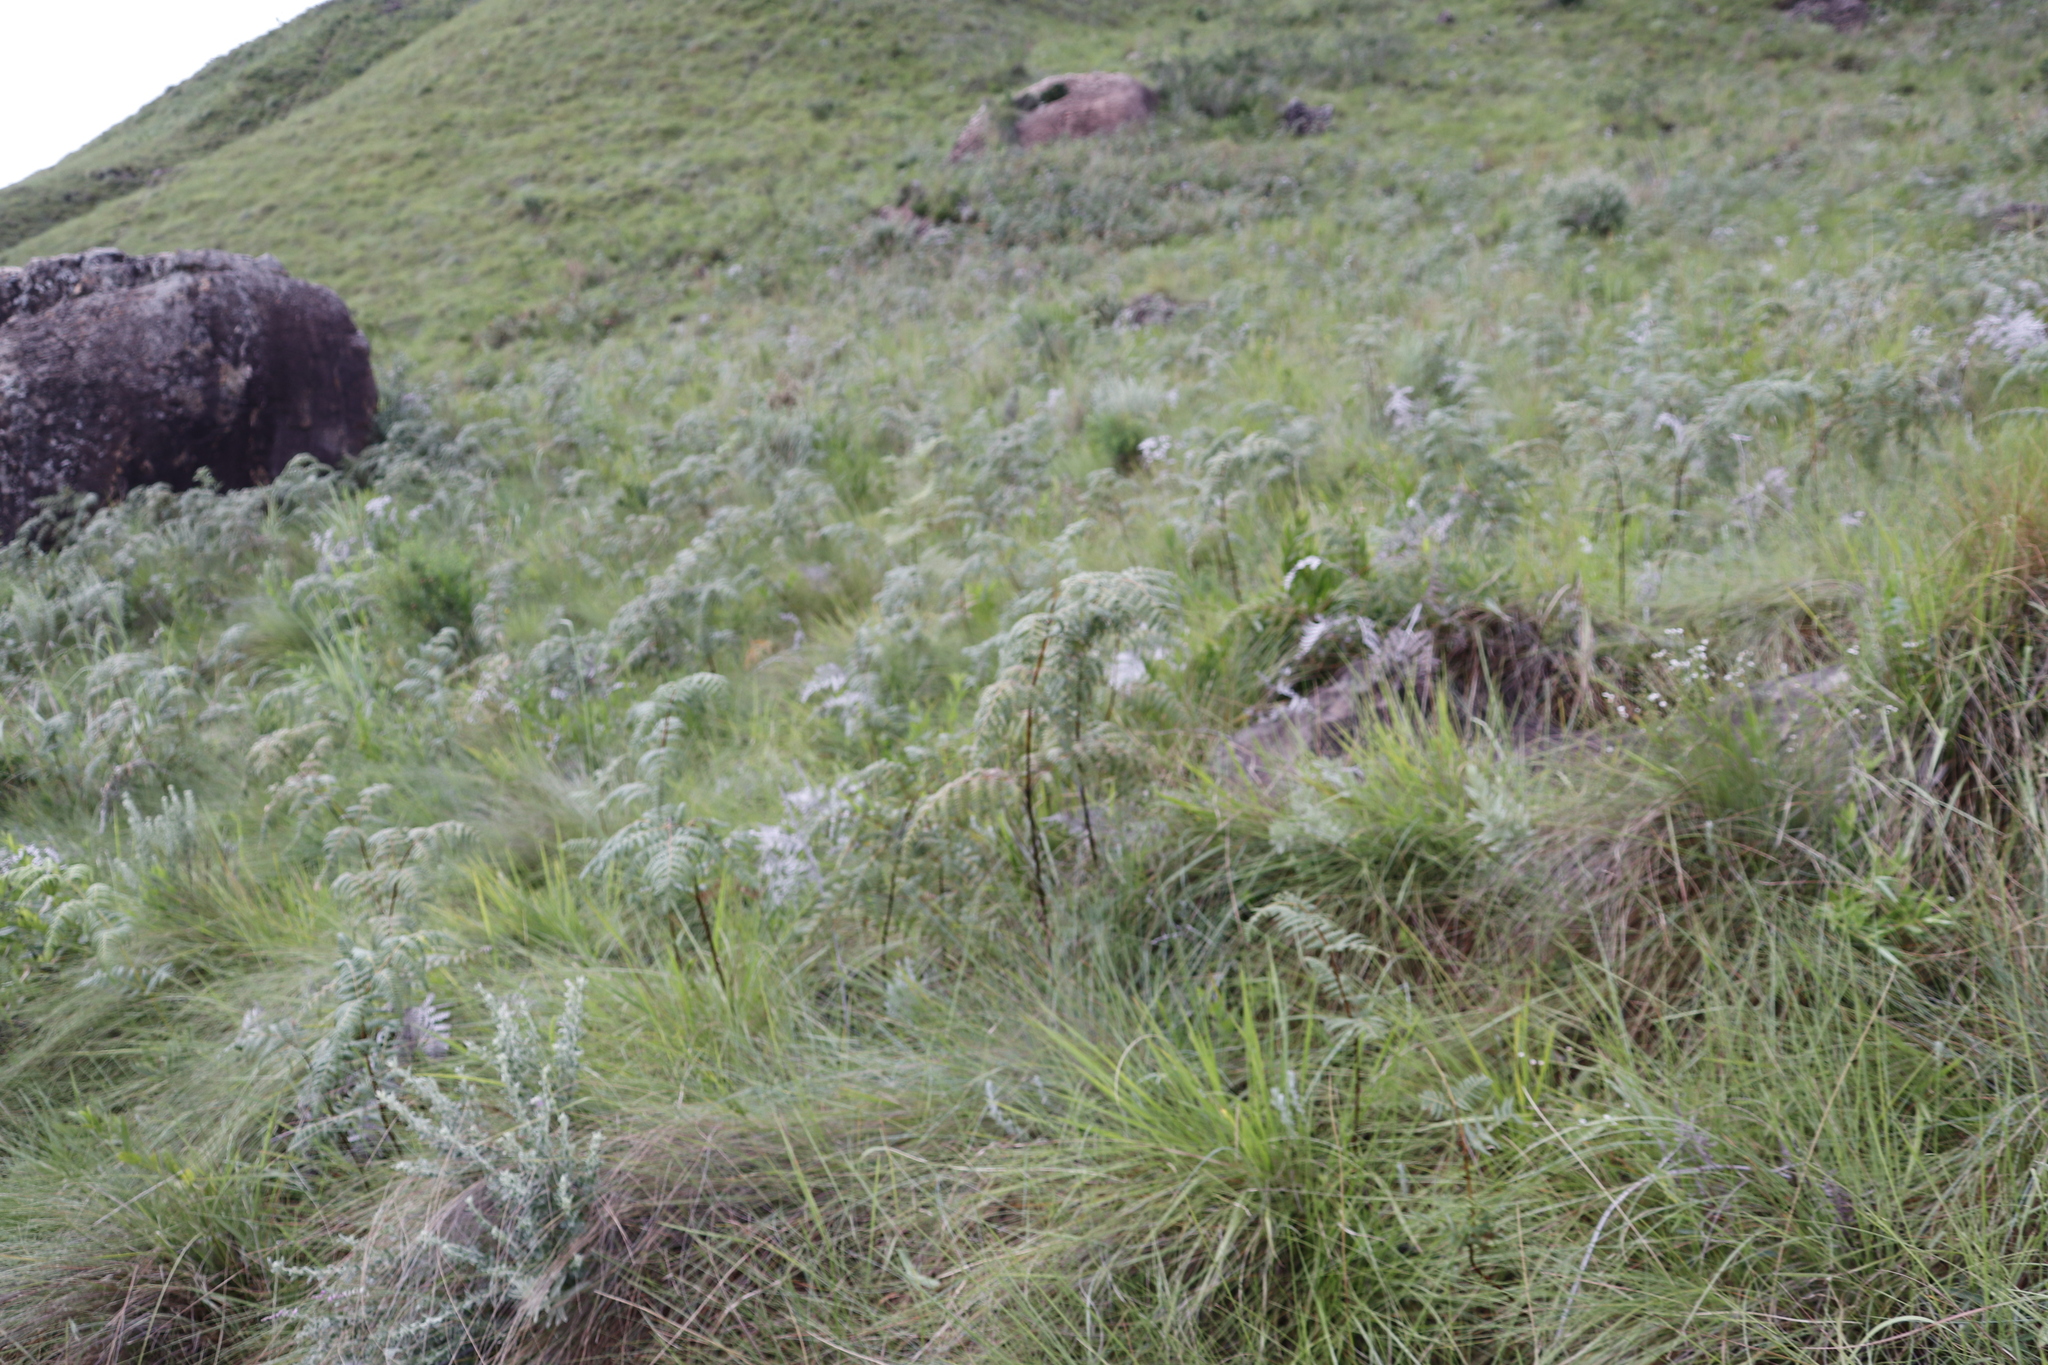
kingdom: Plantae
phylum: Tracheophyta
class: Polypodiopsida
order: Polypodiales
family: Dennstaedtiaceae
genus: Pteridium
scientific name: Pteridium aquilinum
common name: Bracken
